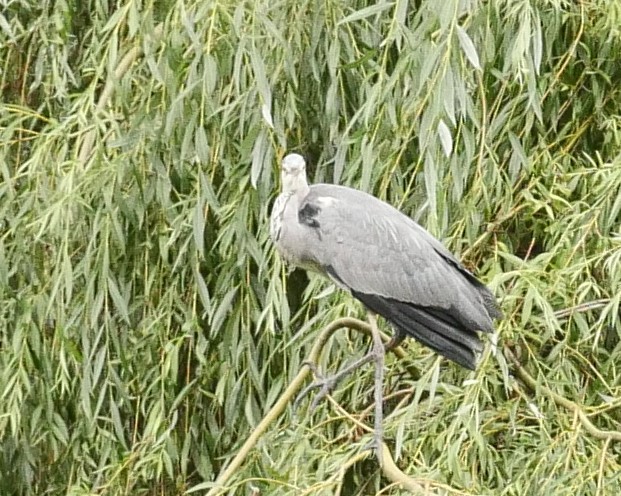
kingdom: Animalia
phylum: Chordata
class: Aves
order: Pelecaniformes
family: Ardeidae
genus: Ardea
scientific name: Ardea cinerea
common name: Grey heron
